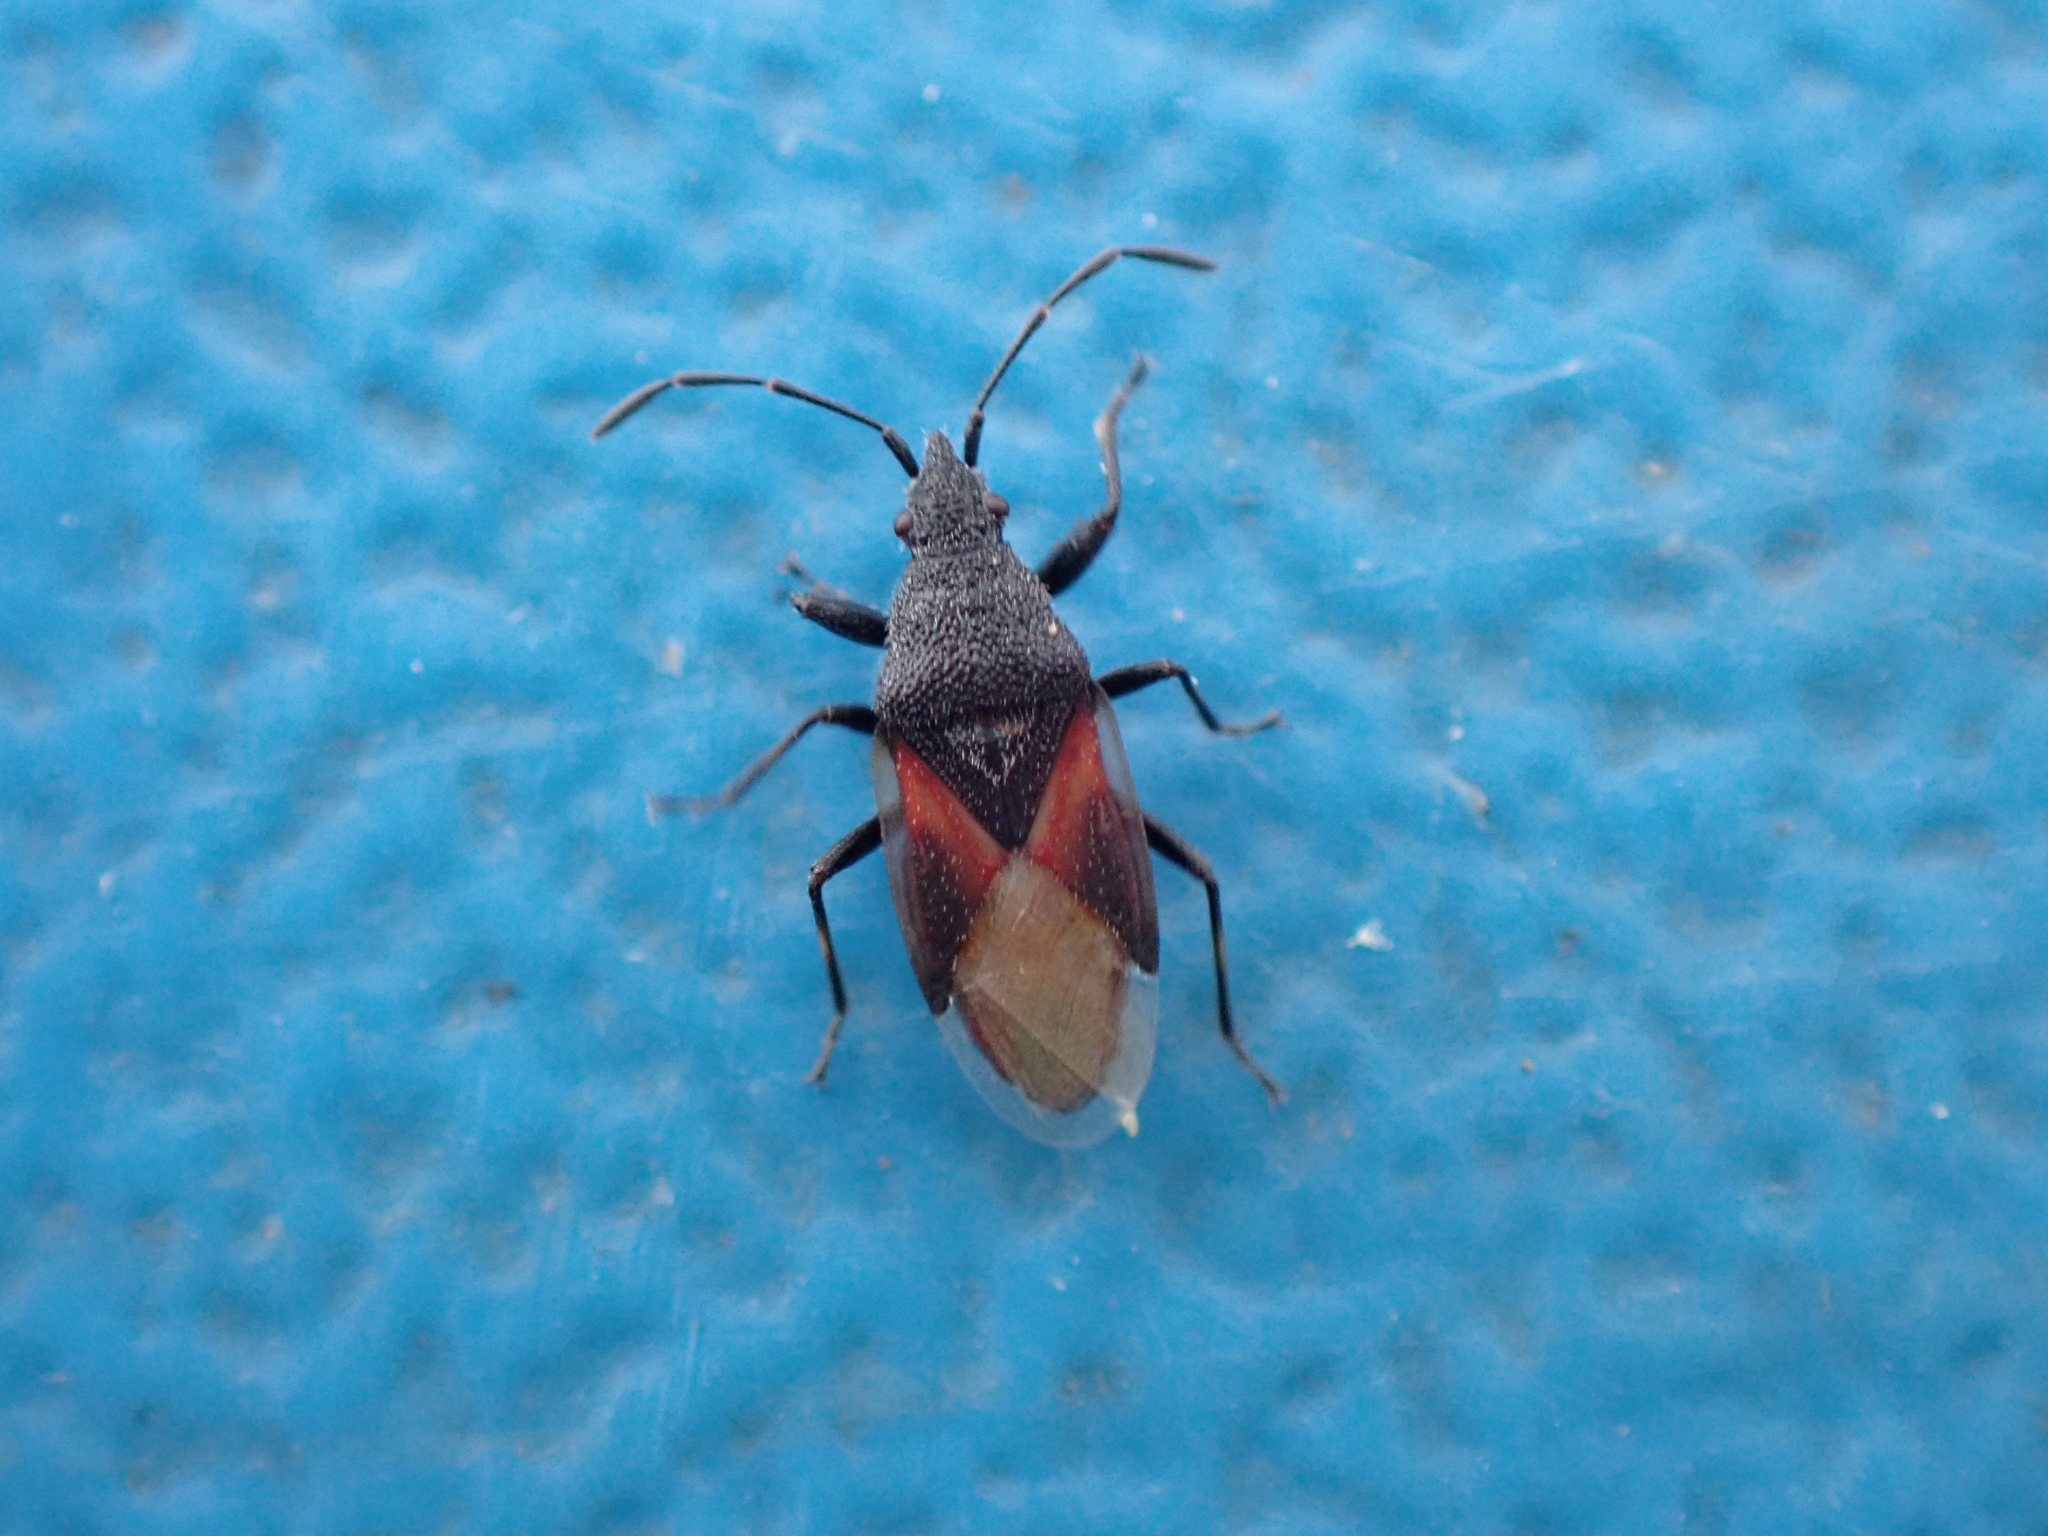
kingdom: Animalia
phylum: Arthropoda
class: Insecta
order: Hemiptera
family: Oxycarenidae
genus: Oxycarenus
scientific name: Oxycarenus lavaterae
